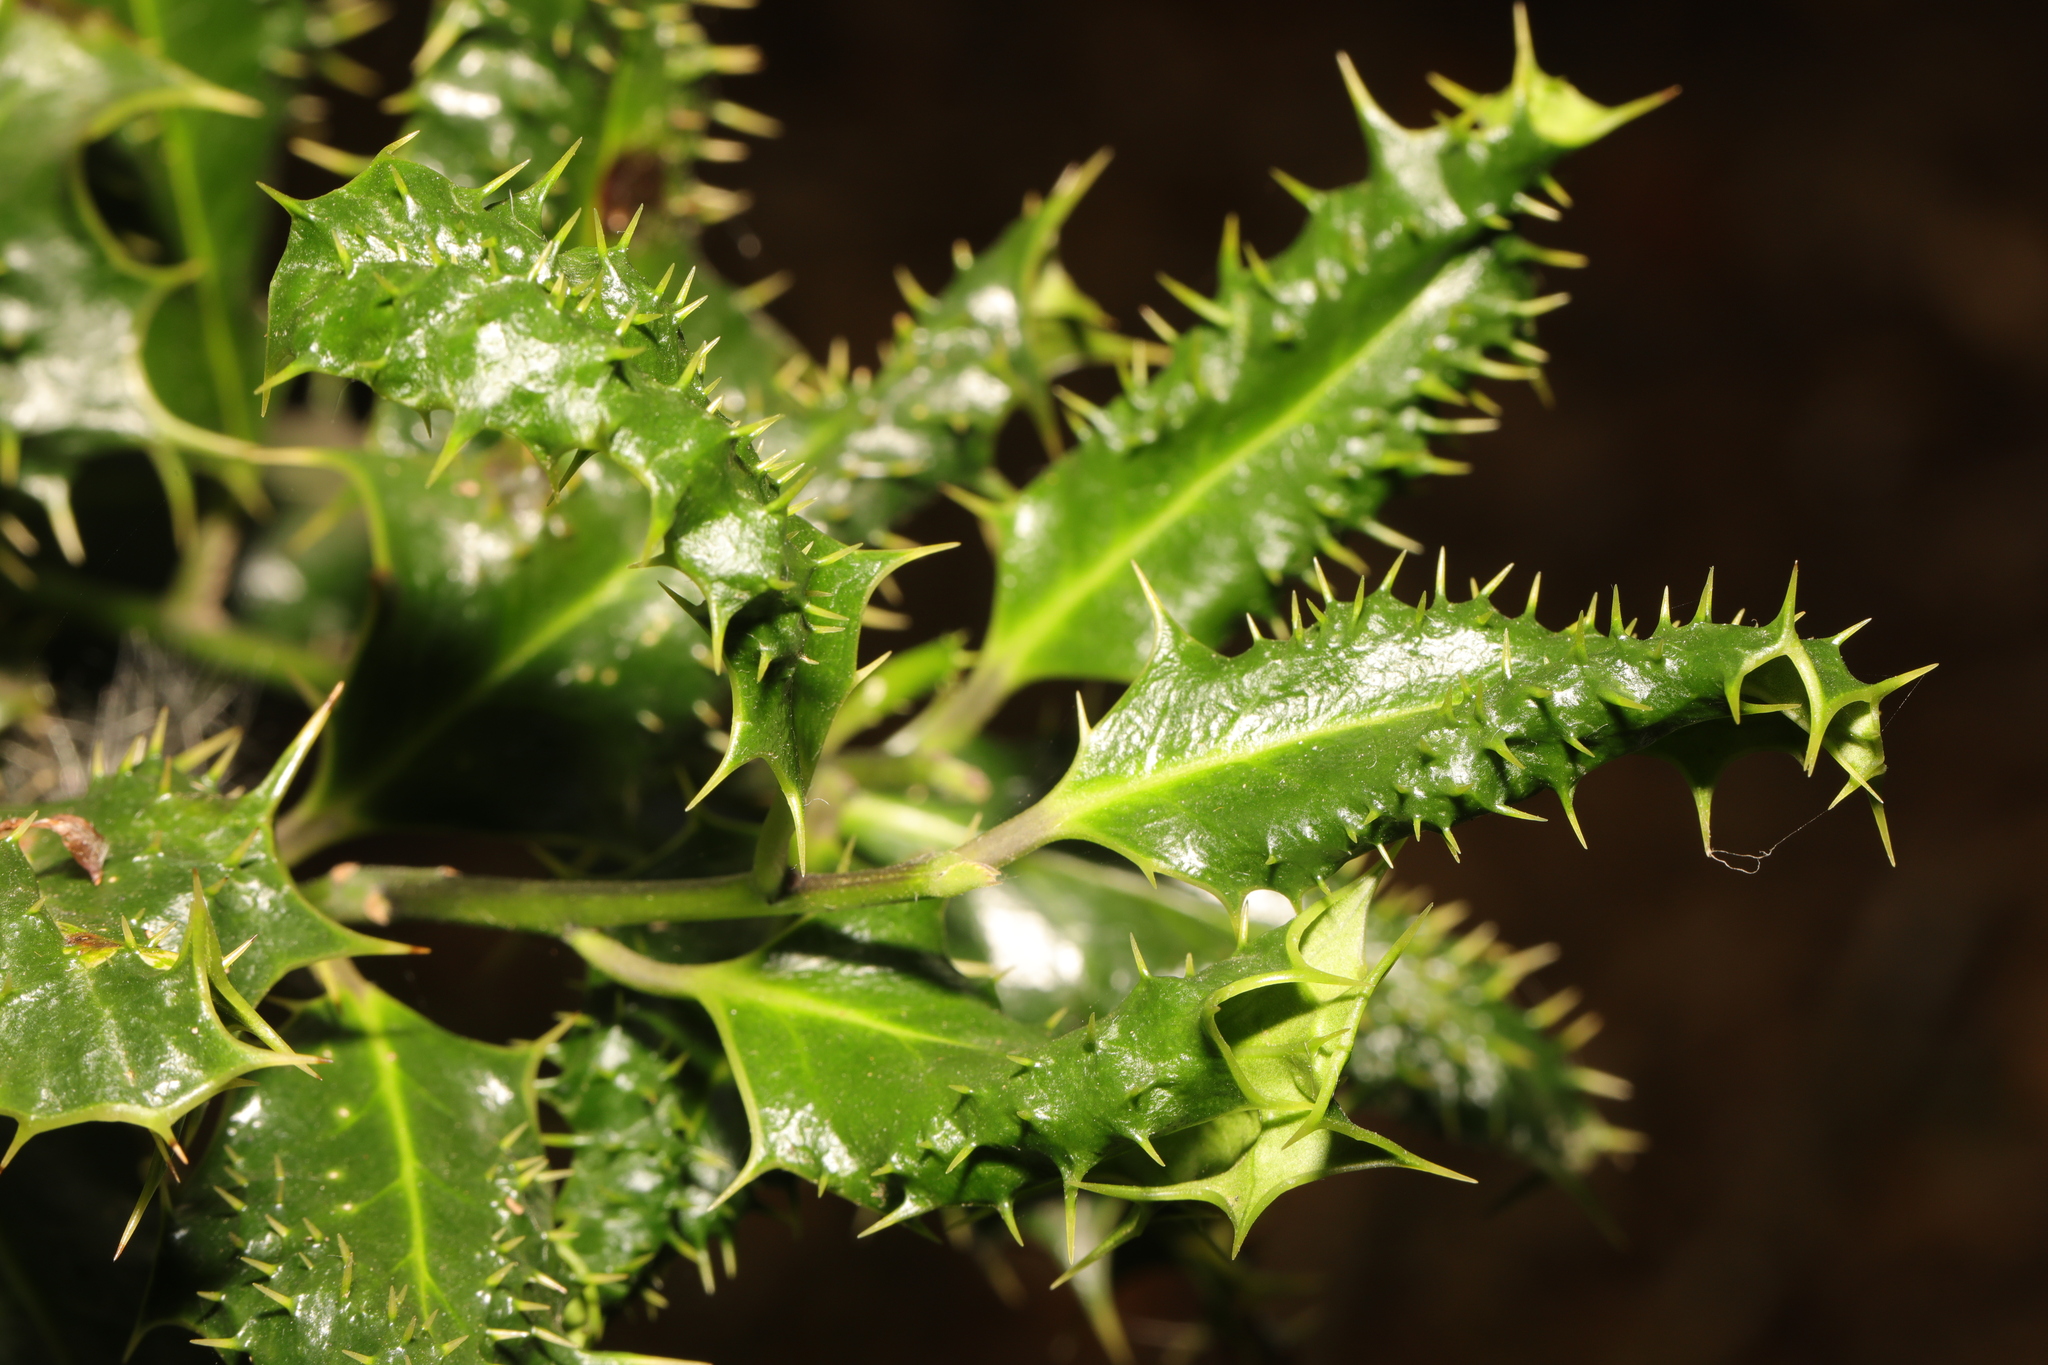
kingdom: Plantae
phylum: Tracheophyta
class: Magnoliopsida
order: Aquifoliales
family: Aquifoliaceae
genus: Ilex
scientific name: Ilex aquifolium
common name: English holly
